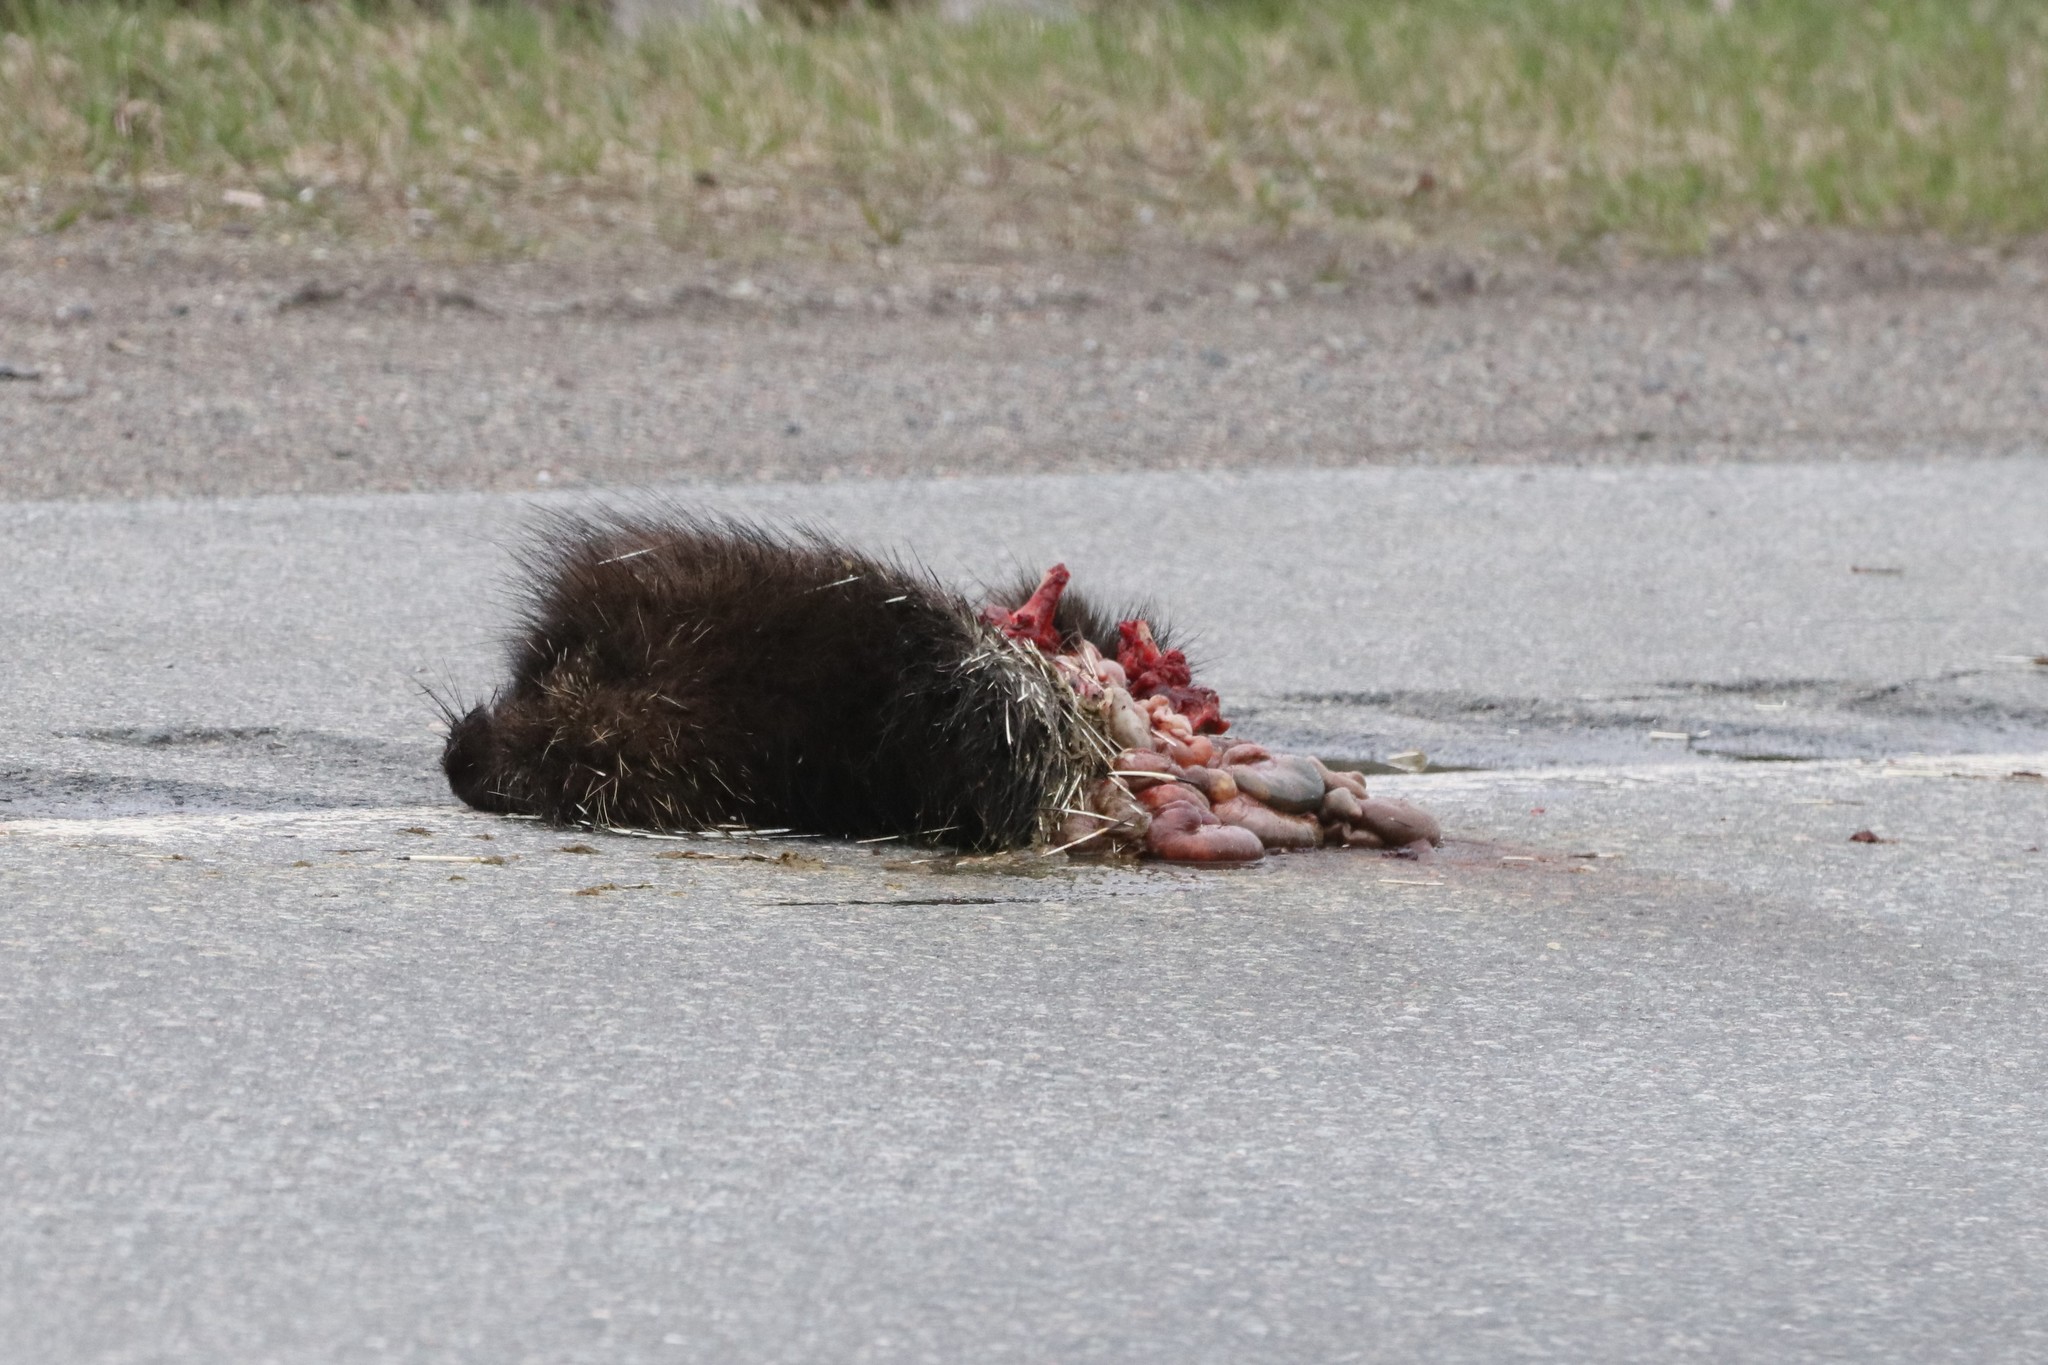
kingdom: Animalia
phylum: Chordata
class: Mammalia
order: Rodentia
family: Erethizontidae
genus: Erethizon
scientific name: Erethizon dorsatus
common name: North american porcupine
